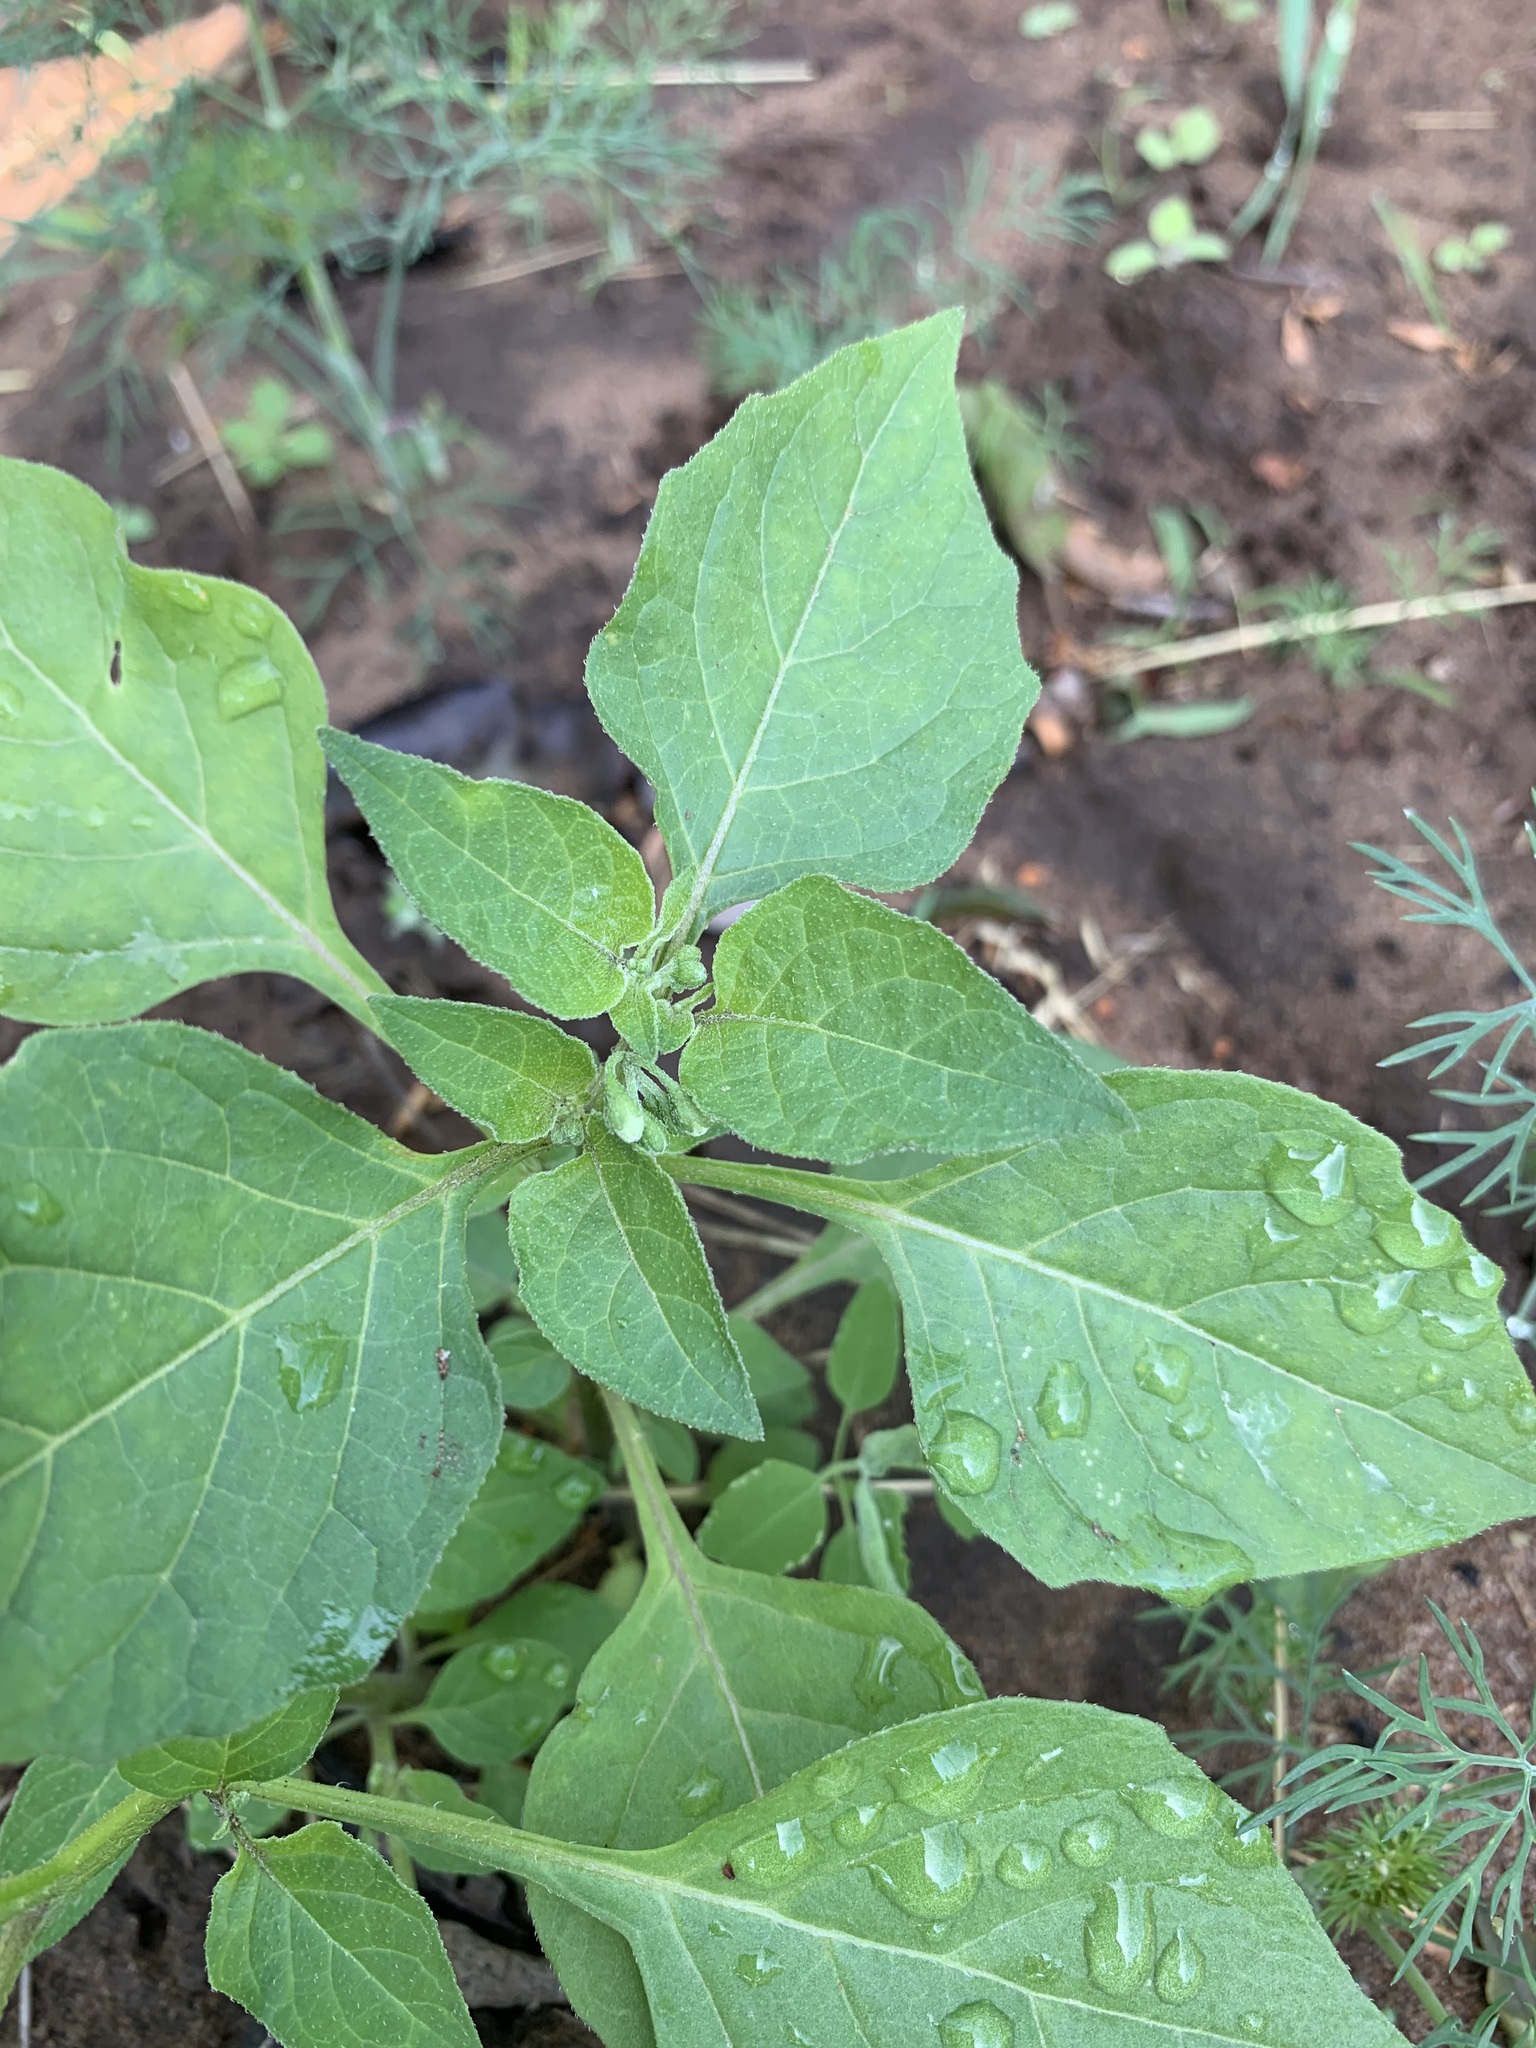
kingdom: Plantae
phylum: Tracheophyta
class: Magnoliopsida
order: Solanales
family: Solanaceae
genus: Solanum
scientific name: Solanum nigrum
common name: Black nightshade
